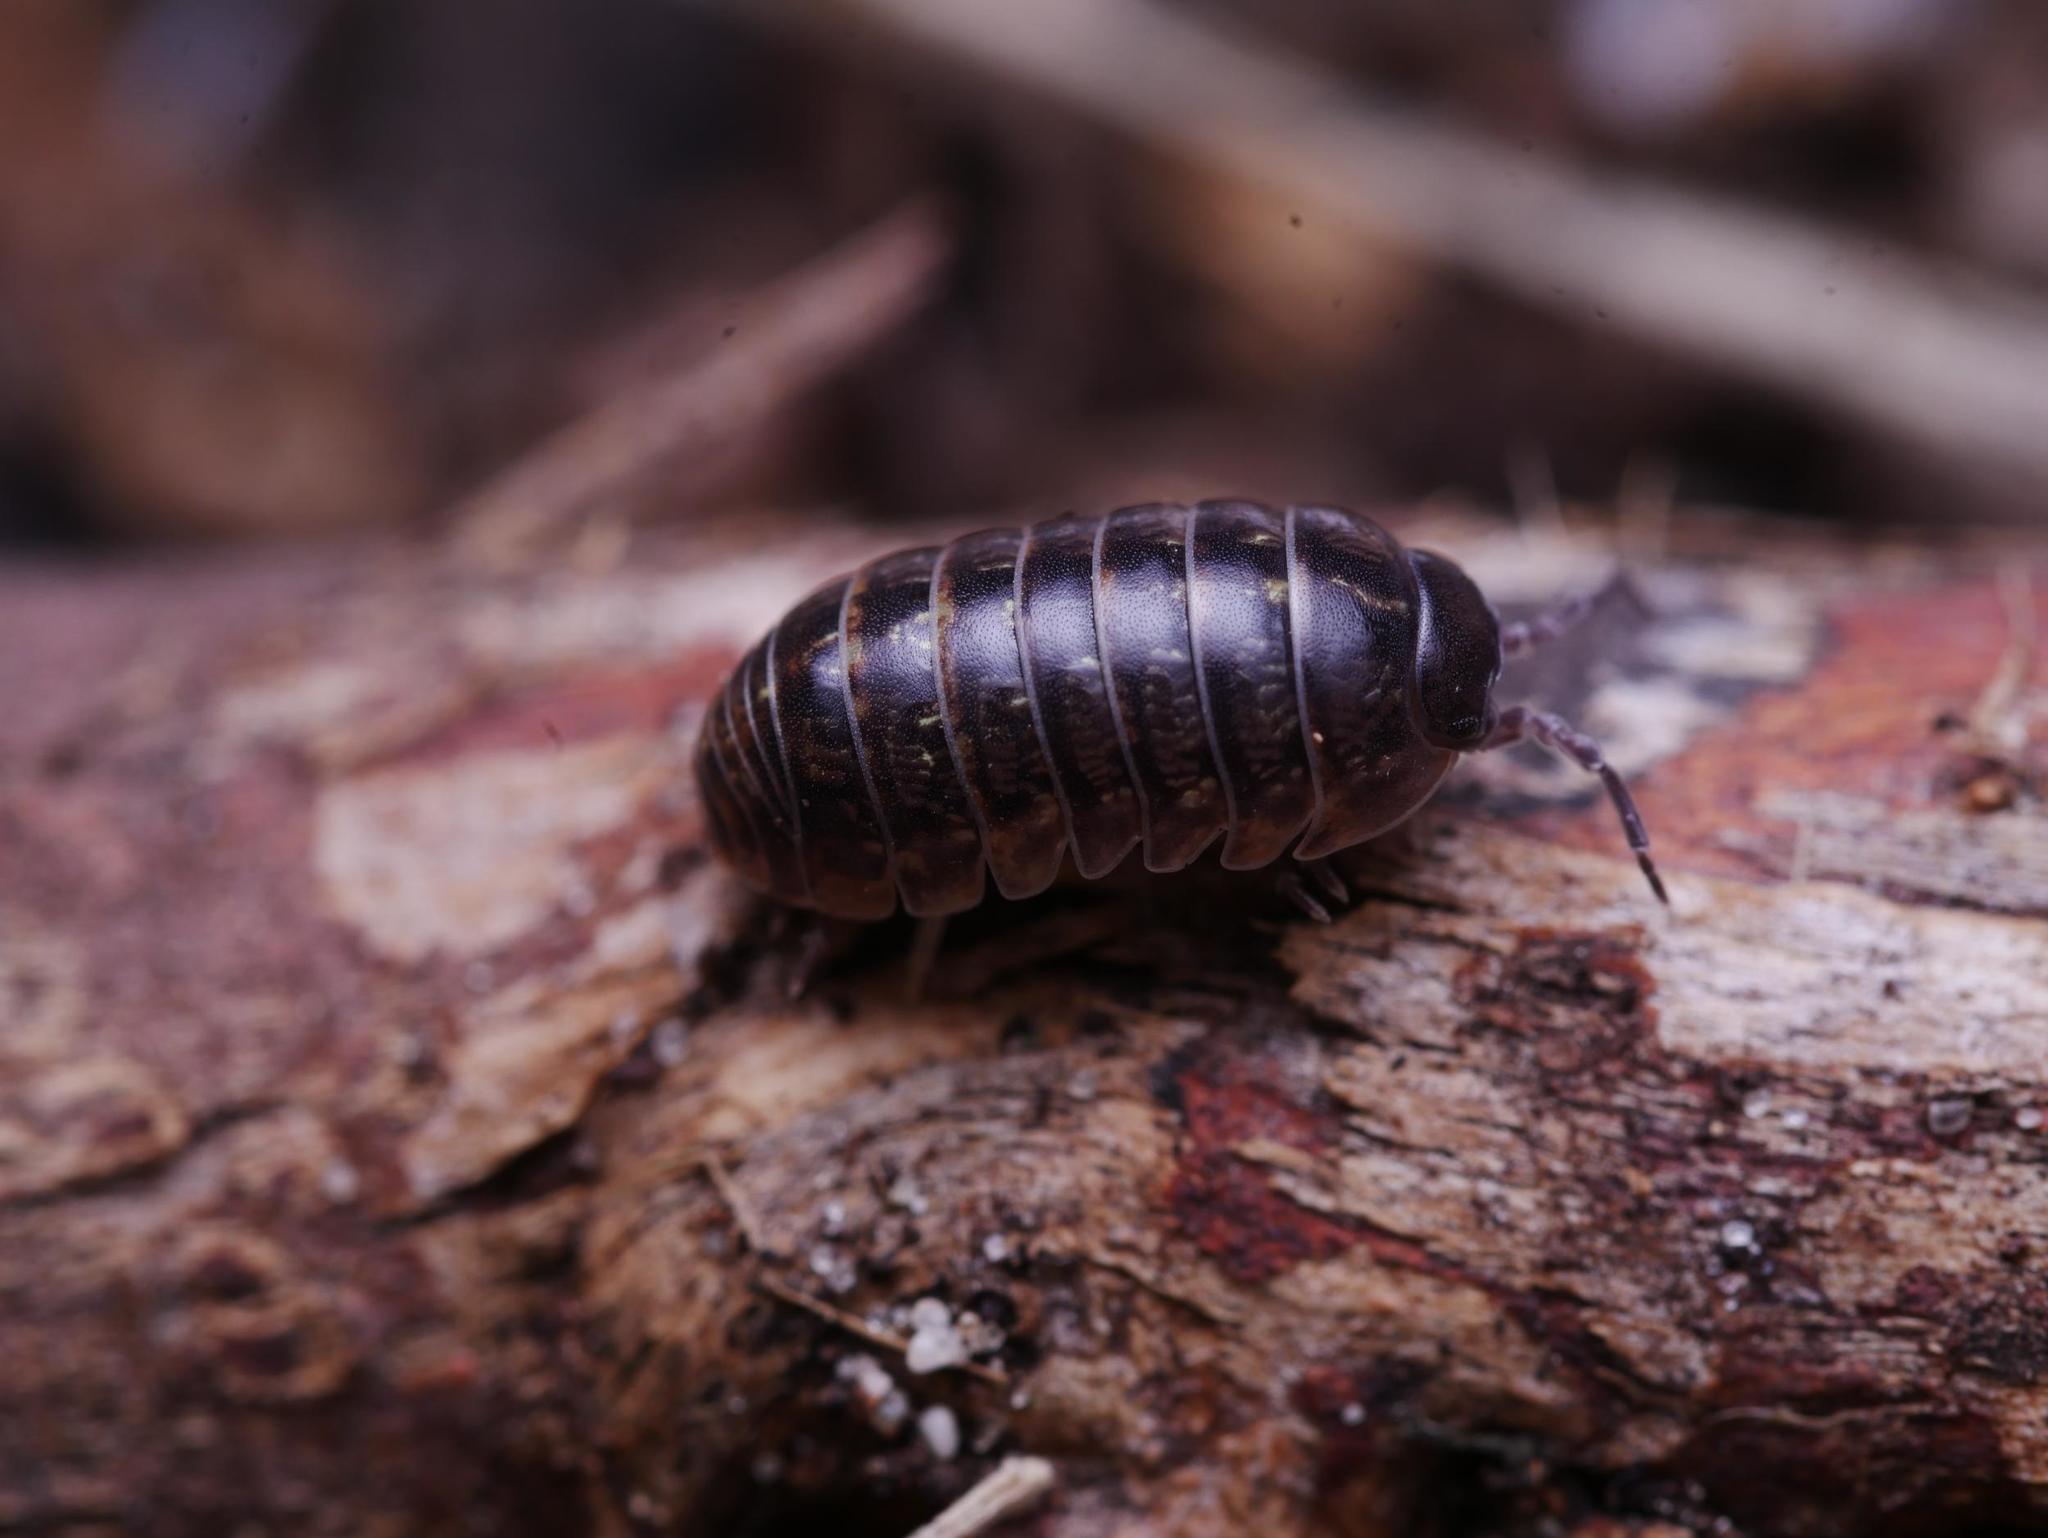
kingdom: Animalia
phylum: Arthropoda
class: Malacostraca
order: Isopoda
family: Armadillidiidae
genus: Armadillidium
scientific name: Armadillidium vulgare
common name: Common pill woodlouse
